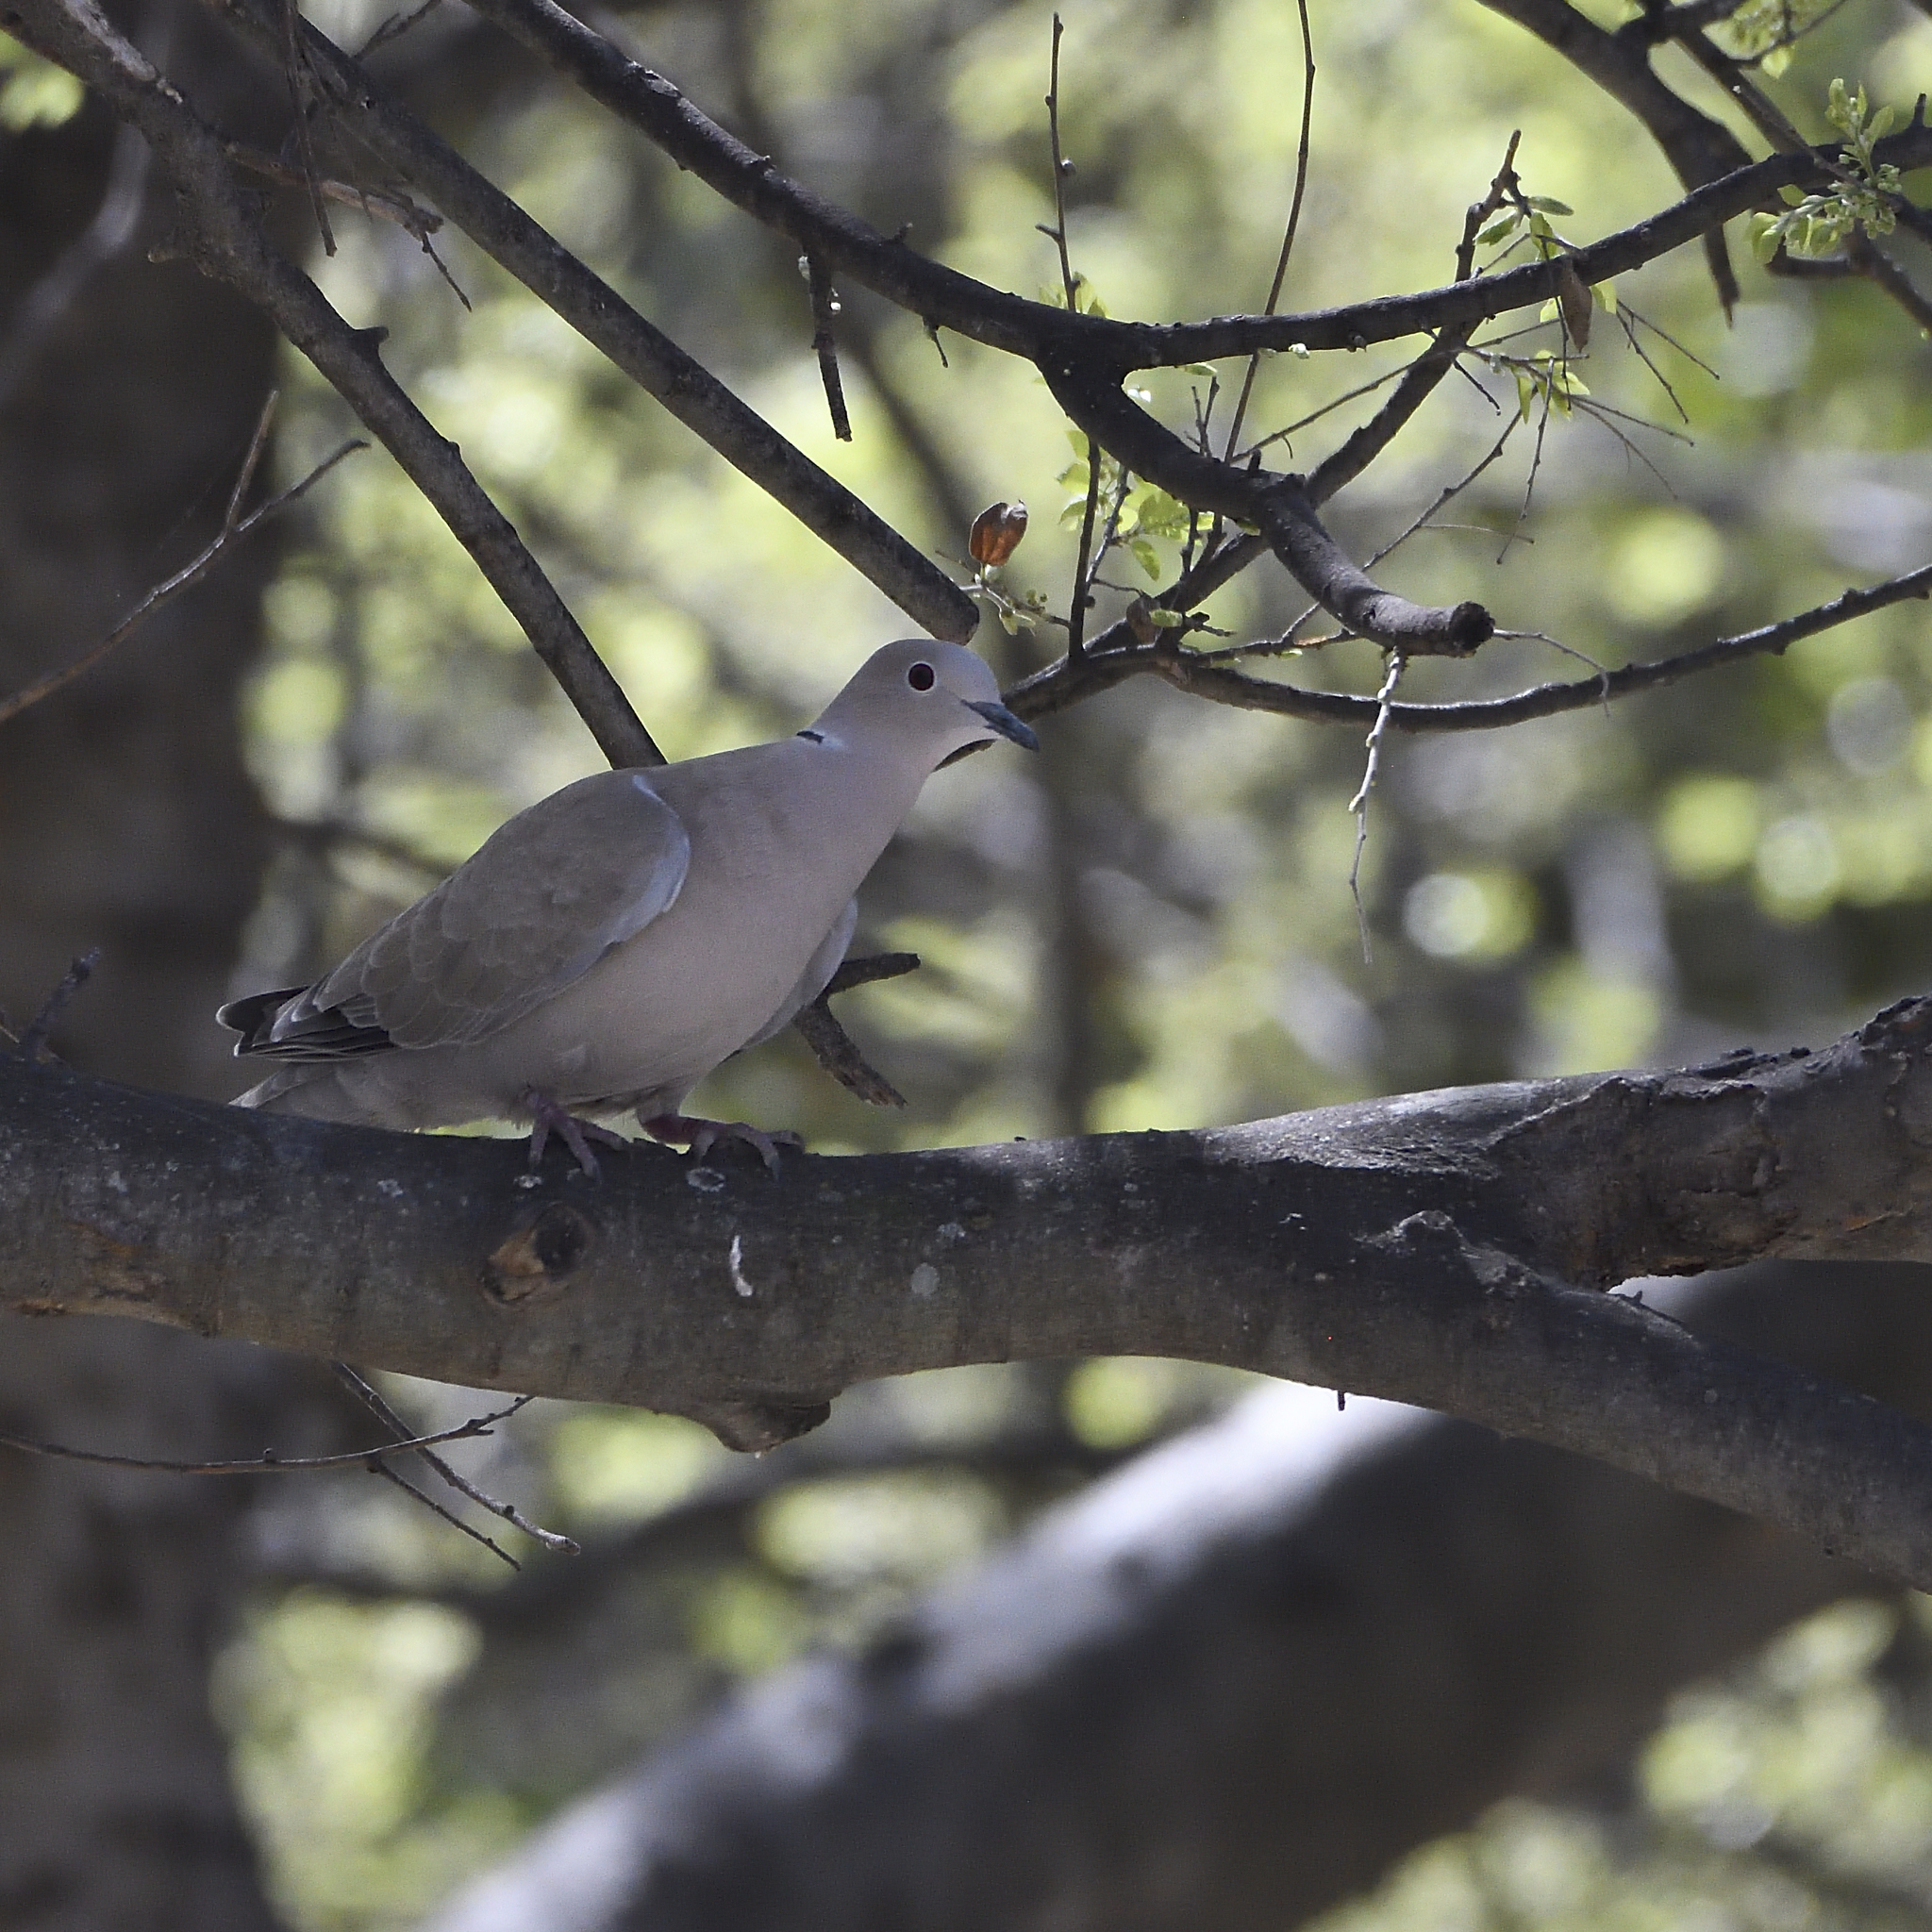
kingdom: Animalia
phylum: Chordata
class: Aves
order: Columbiformes
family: Columbidae
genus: Streptopelia
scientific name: Streptopelia decaocto
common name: Eurasian collared dove
